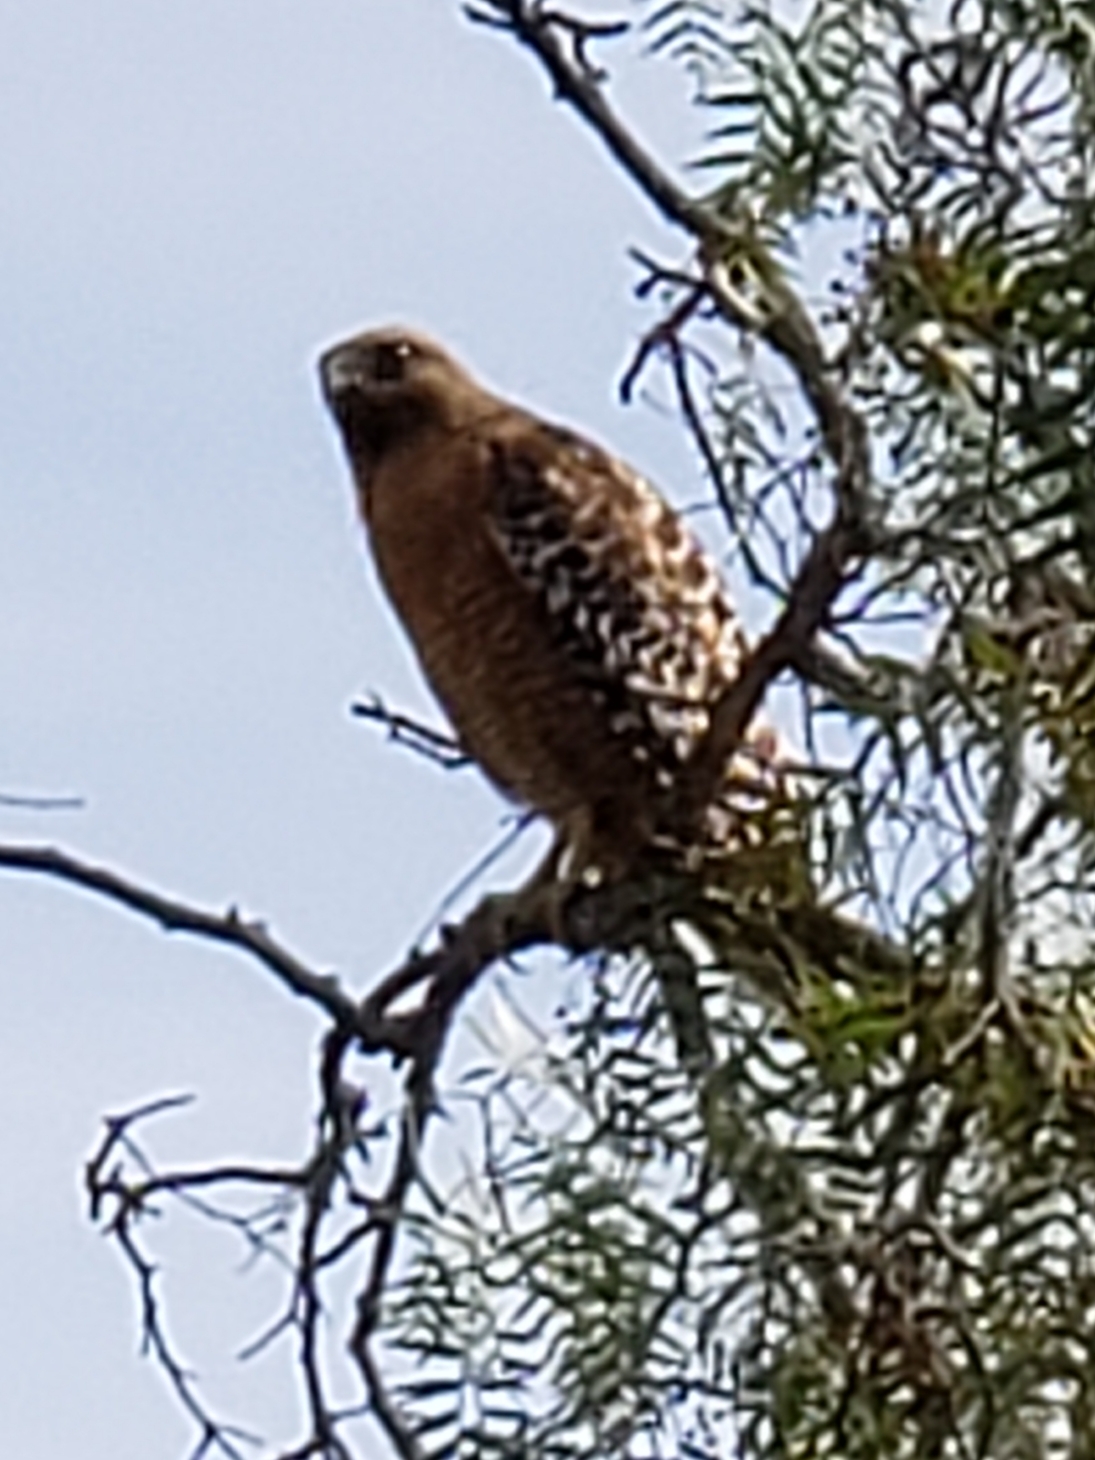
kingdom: Animalia
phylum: Chordata
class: Aves
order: Accipitriformes
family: Accipitridae
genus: Buteo
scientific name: Buteo lineatus
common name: Red-shouldered hawk
